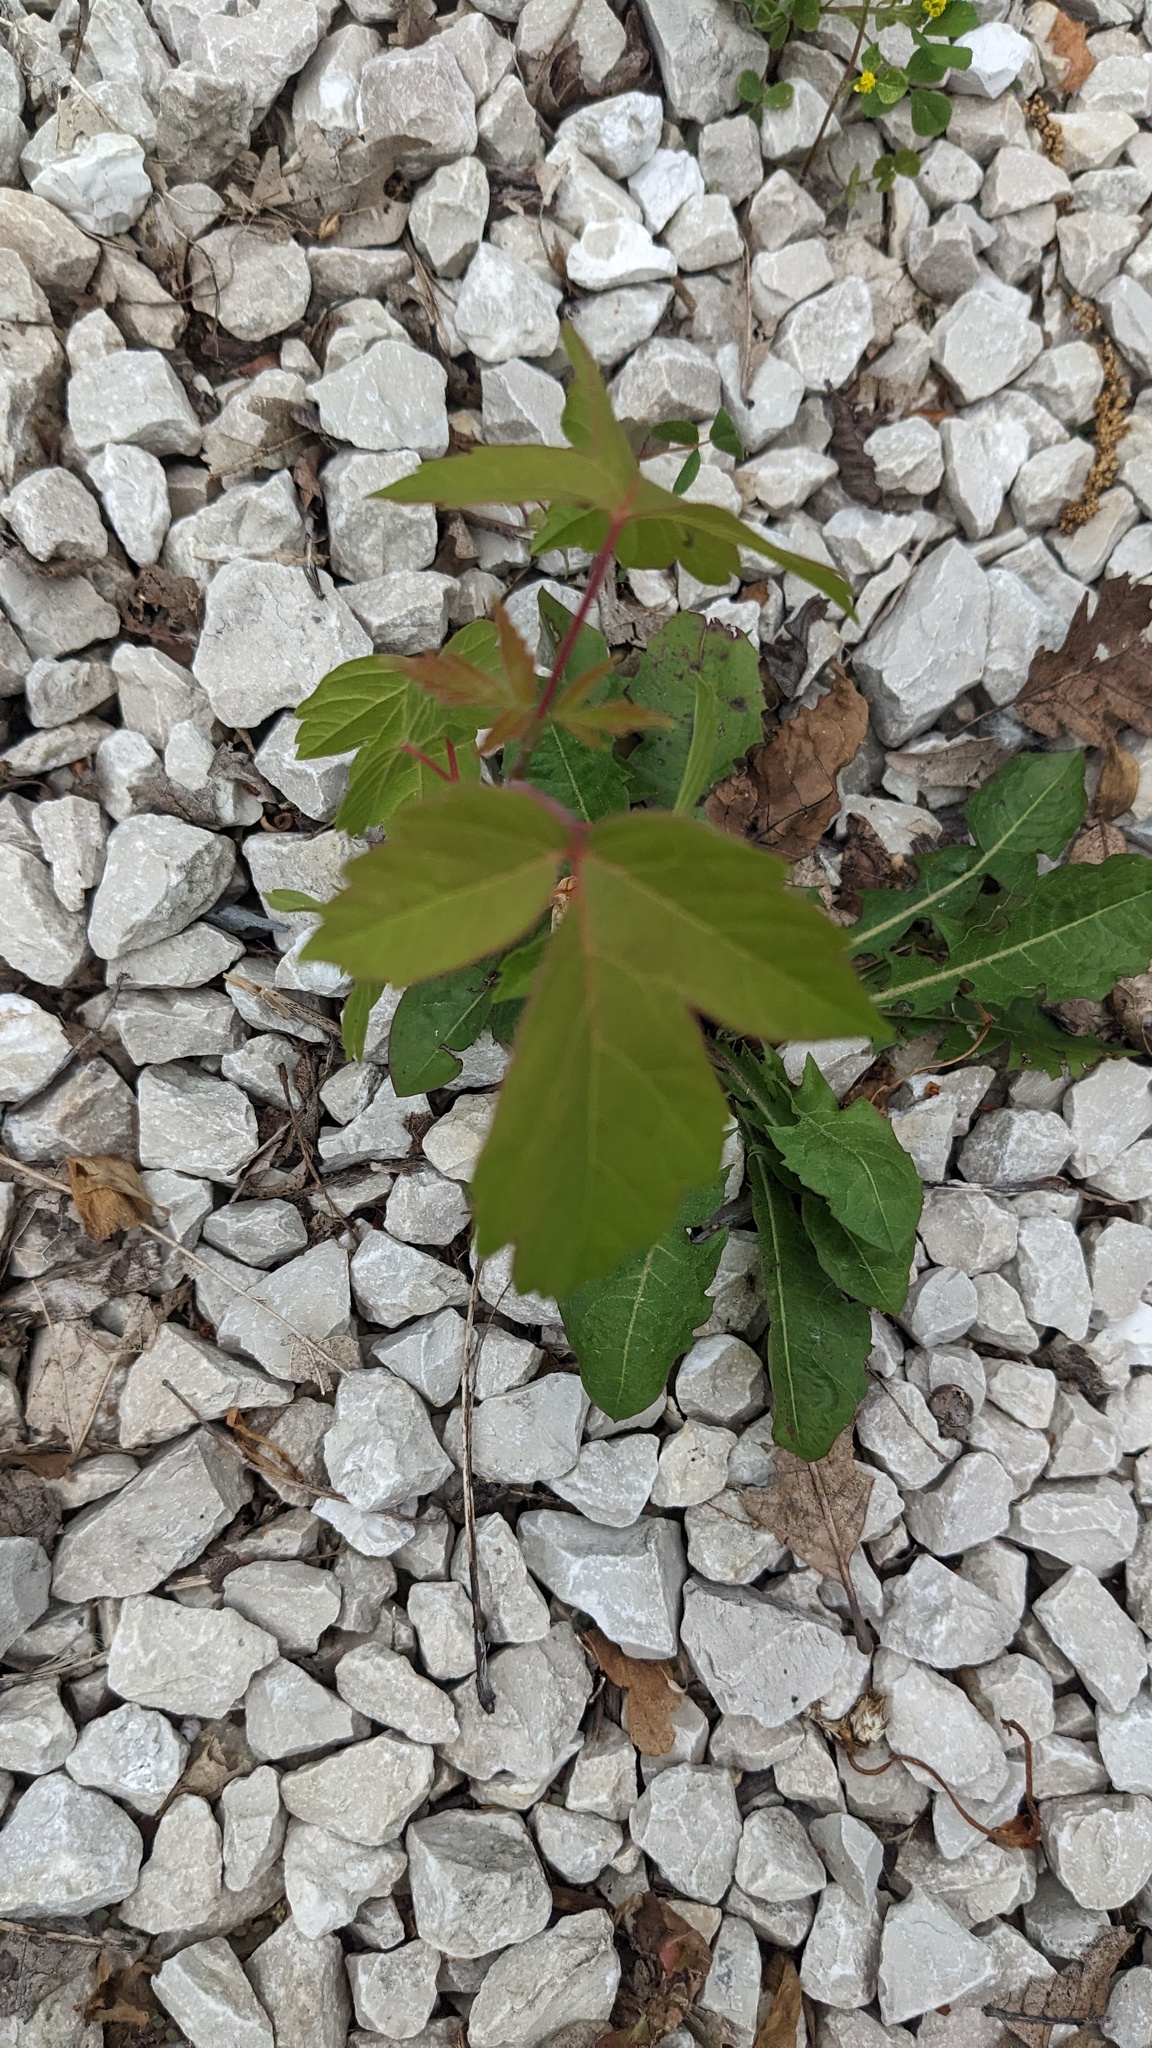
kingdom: Plantae
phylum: Tracheophyta
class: Magnoliopsida
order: Sapindales
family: Sapindaceae
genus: Acer
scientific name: Acer negundo
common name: Ashleaf maple
